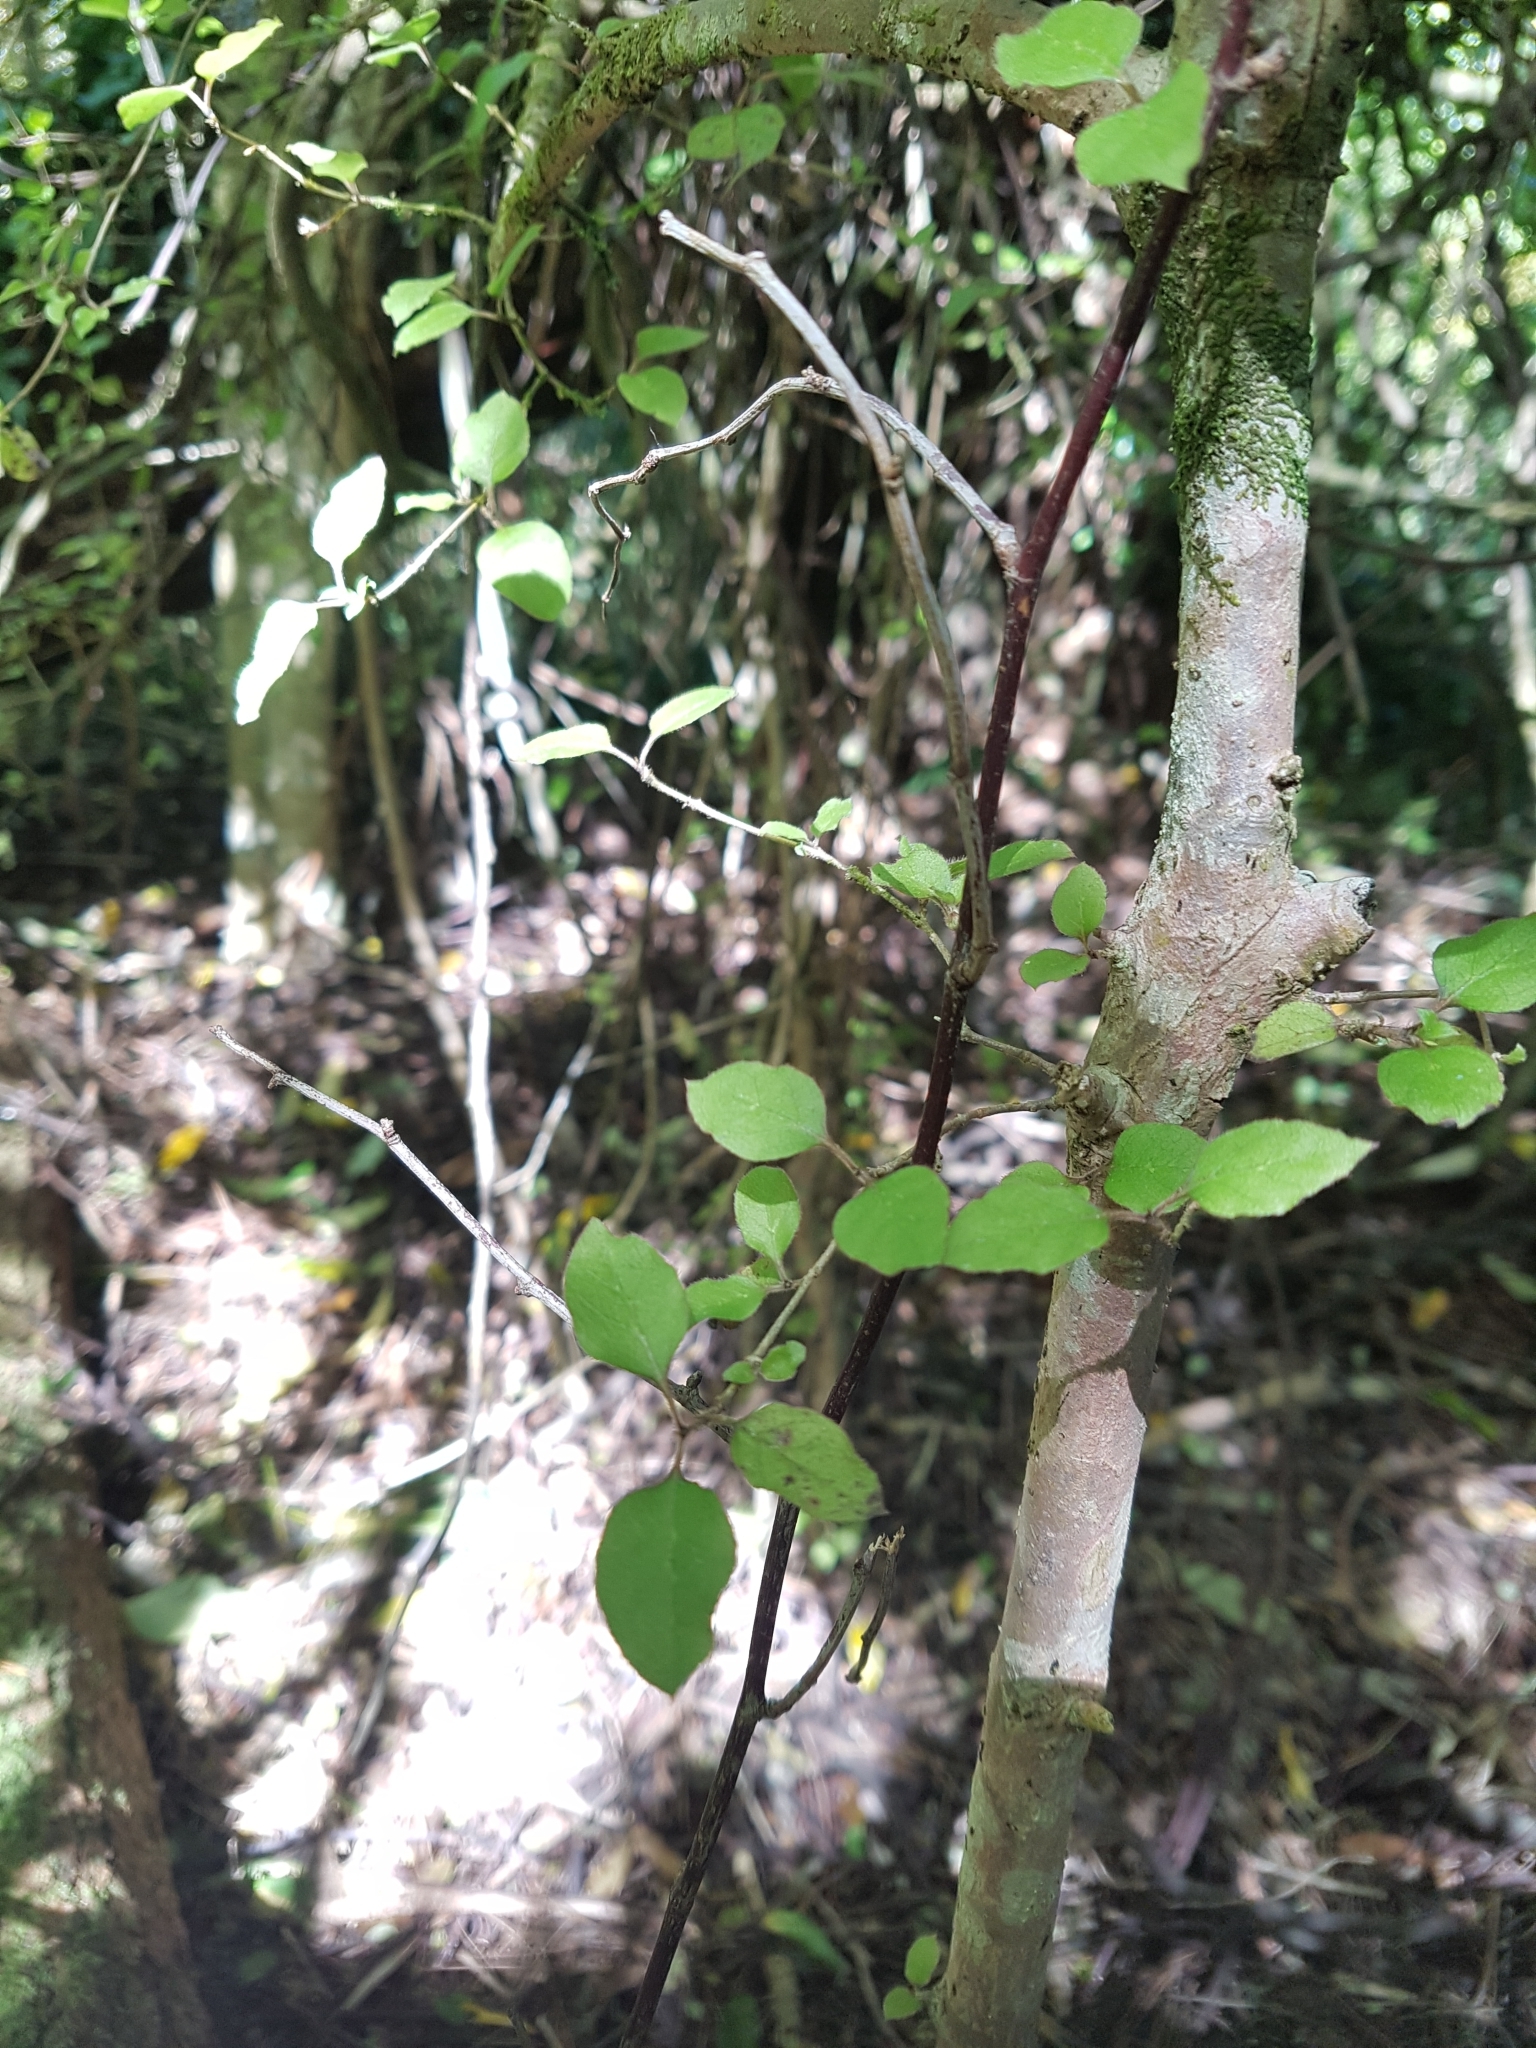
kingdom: Plantae
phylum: Tracheophyta
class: Magnoliopsida
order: Gentianales
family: Rubiaceae
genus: Coprosma
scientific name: Coprosma rotundifolia
